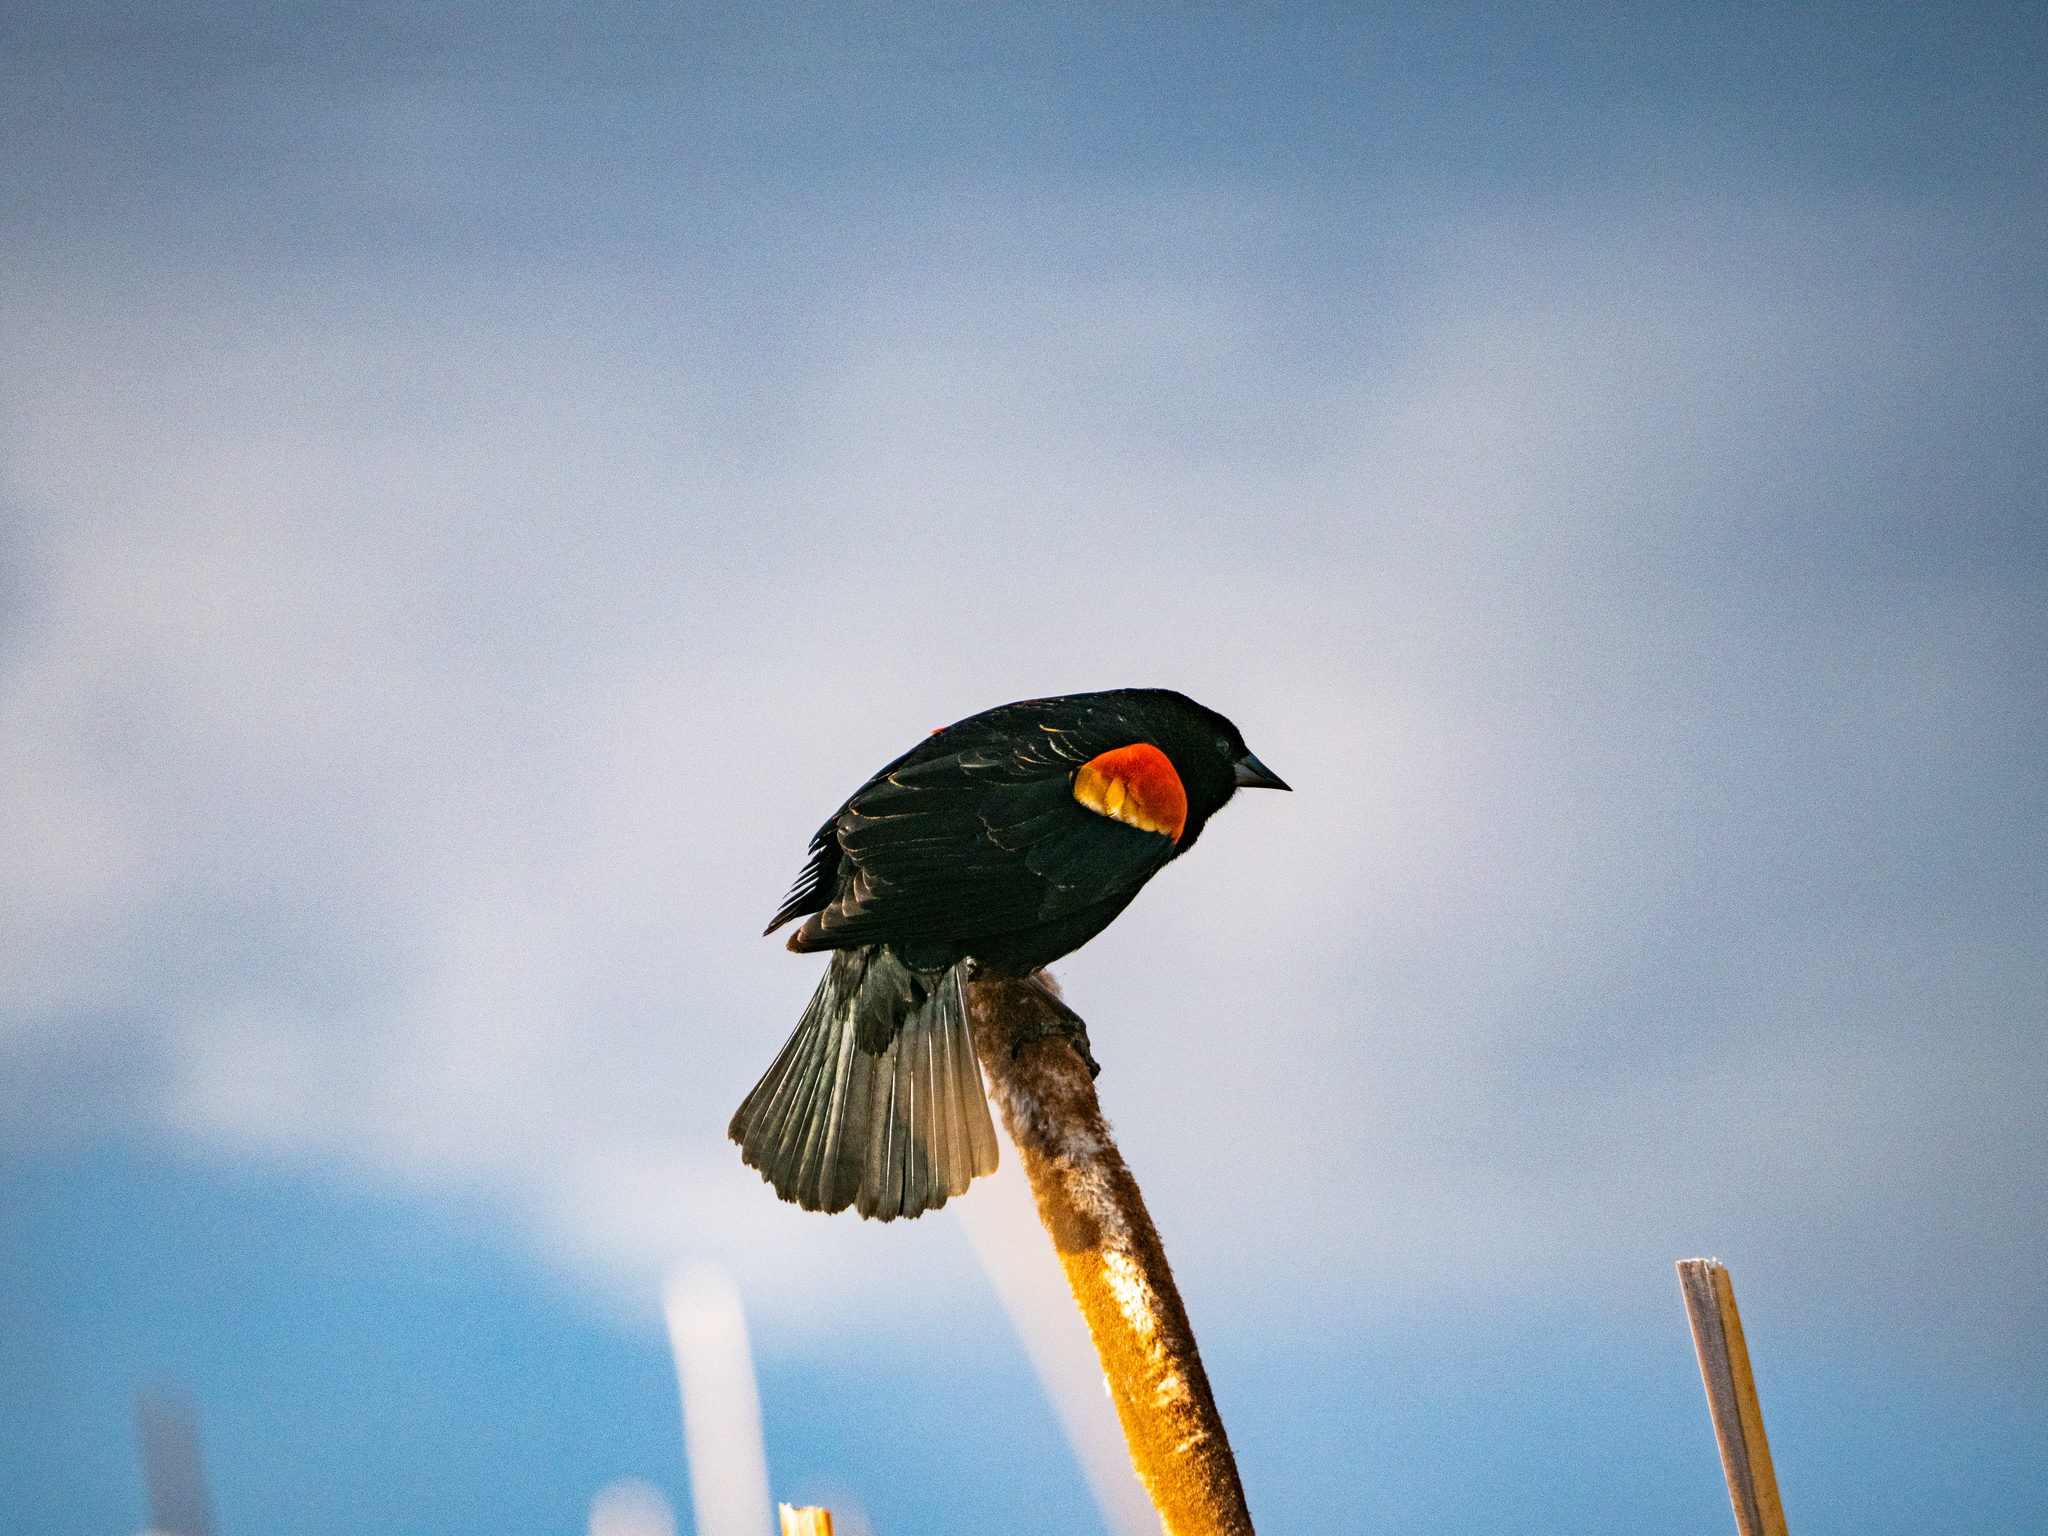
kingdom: Animalia
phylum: Chordata
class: Aves
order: Passeriformes
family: Icteridae
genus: Agelaius
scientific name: Agelaius phoeniceus
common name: Red-winged blackbird
